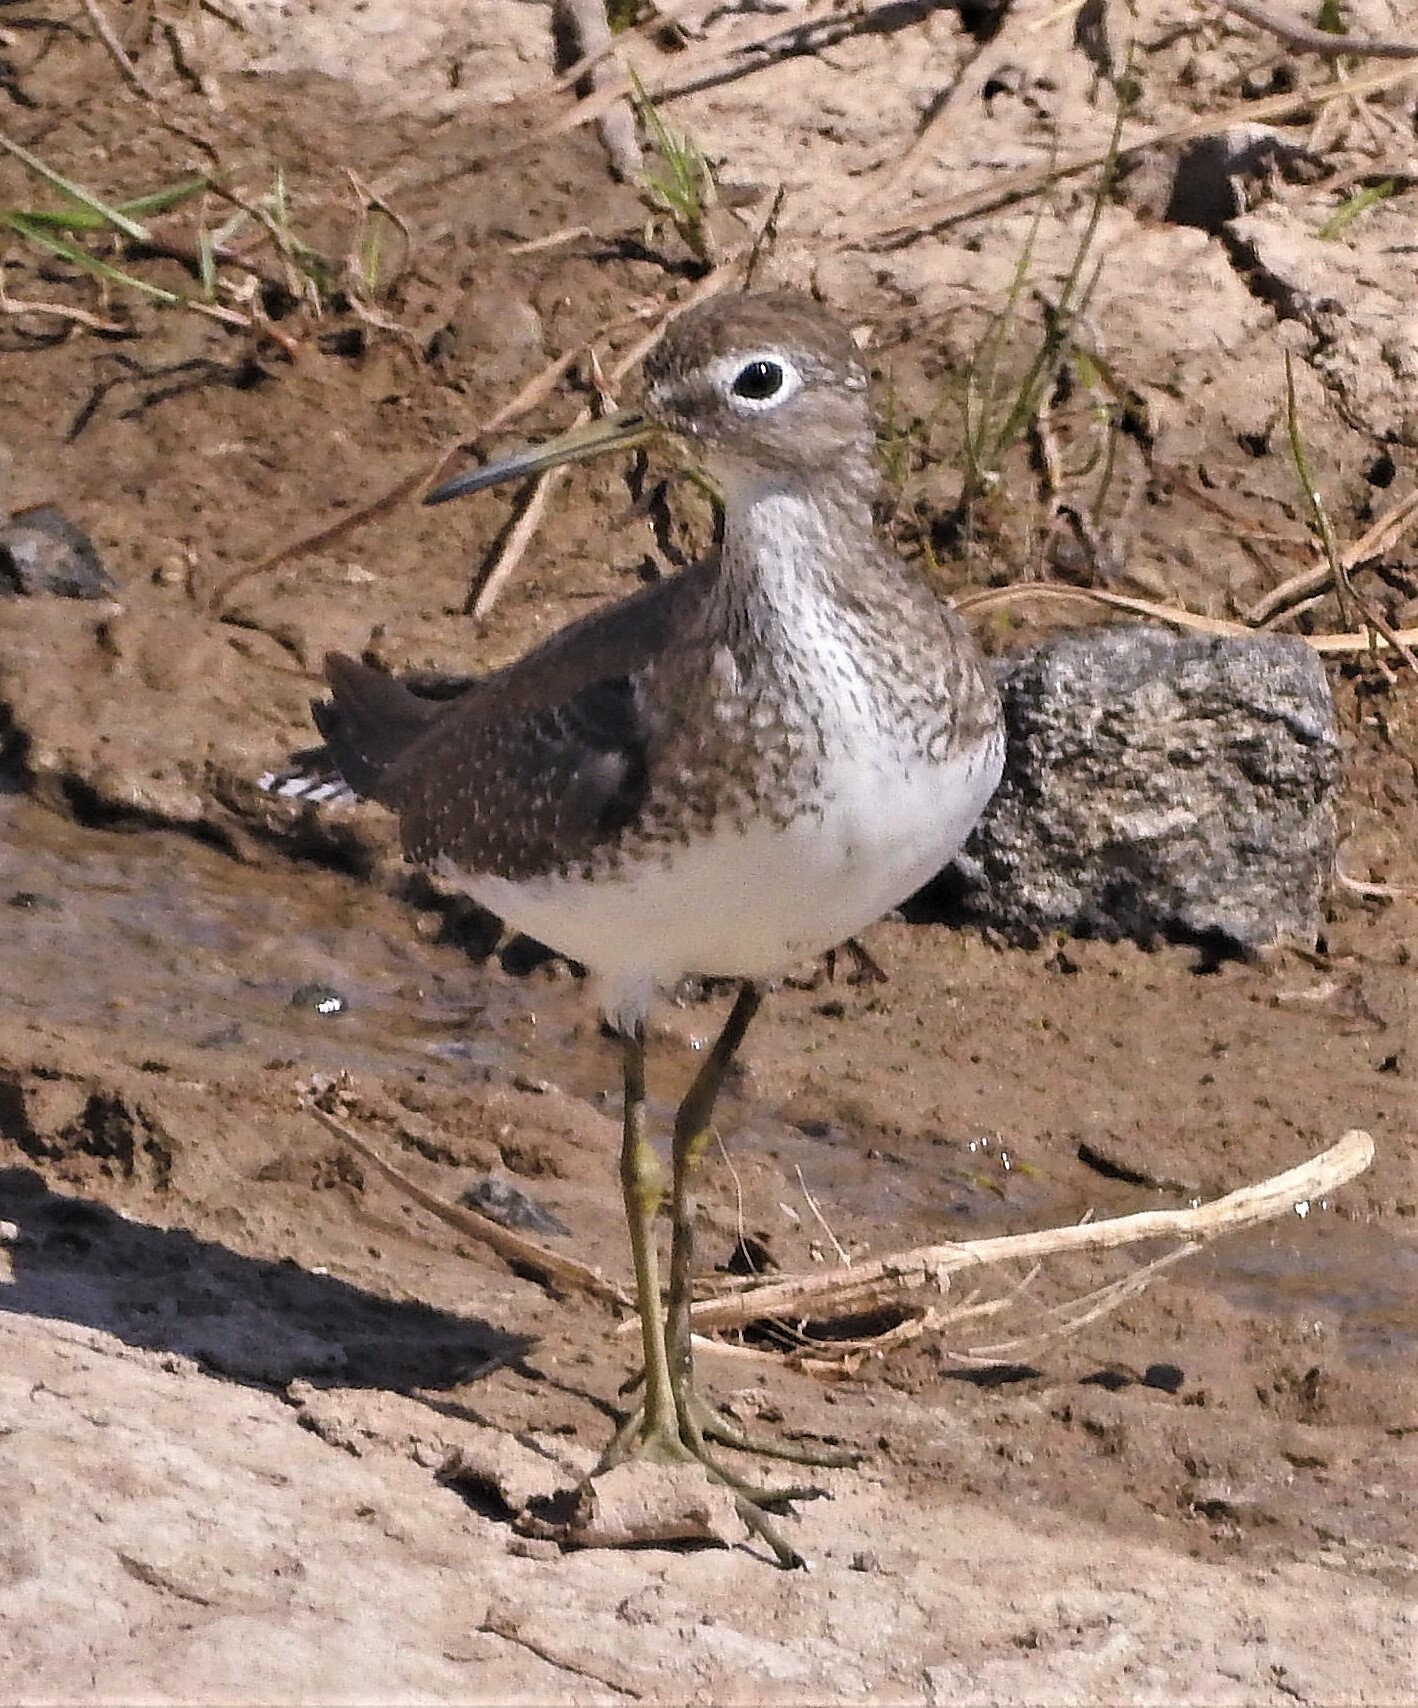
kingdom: Animalia
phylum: Chordata
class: Aves
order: Charadriiformes
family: Scolopacidae
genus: Tringa
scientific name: Tringa solitaria
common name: Solitary sandpiper
